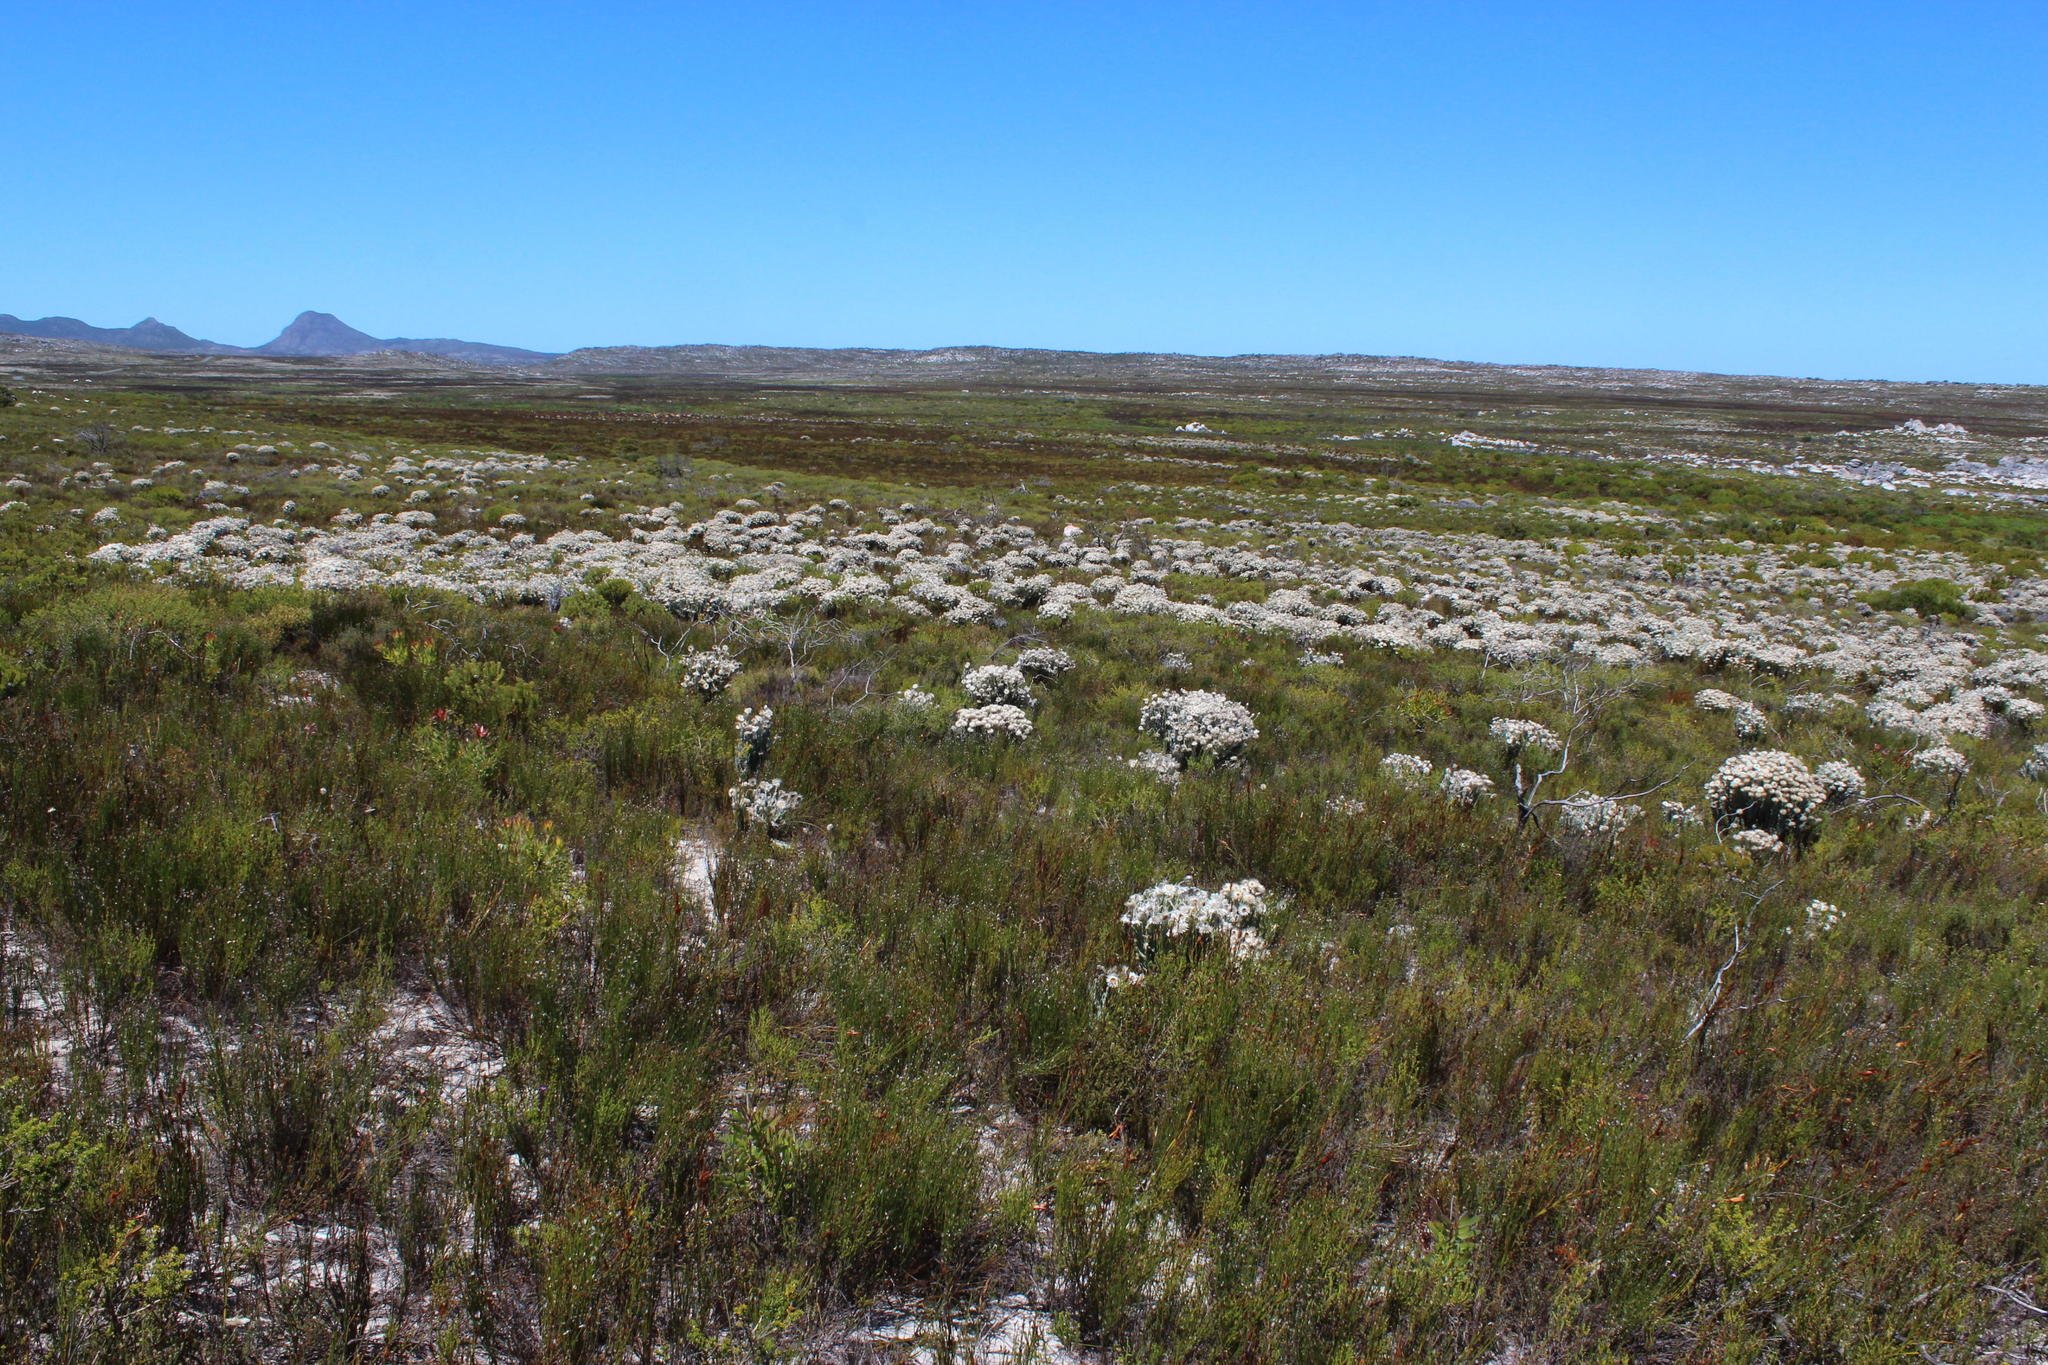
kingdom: Plantae
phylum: Tracheophyta
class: Magnoliopsida
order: Asterales
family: Asteraceae
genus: Syncarpha
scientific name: Syncarpha vestita
